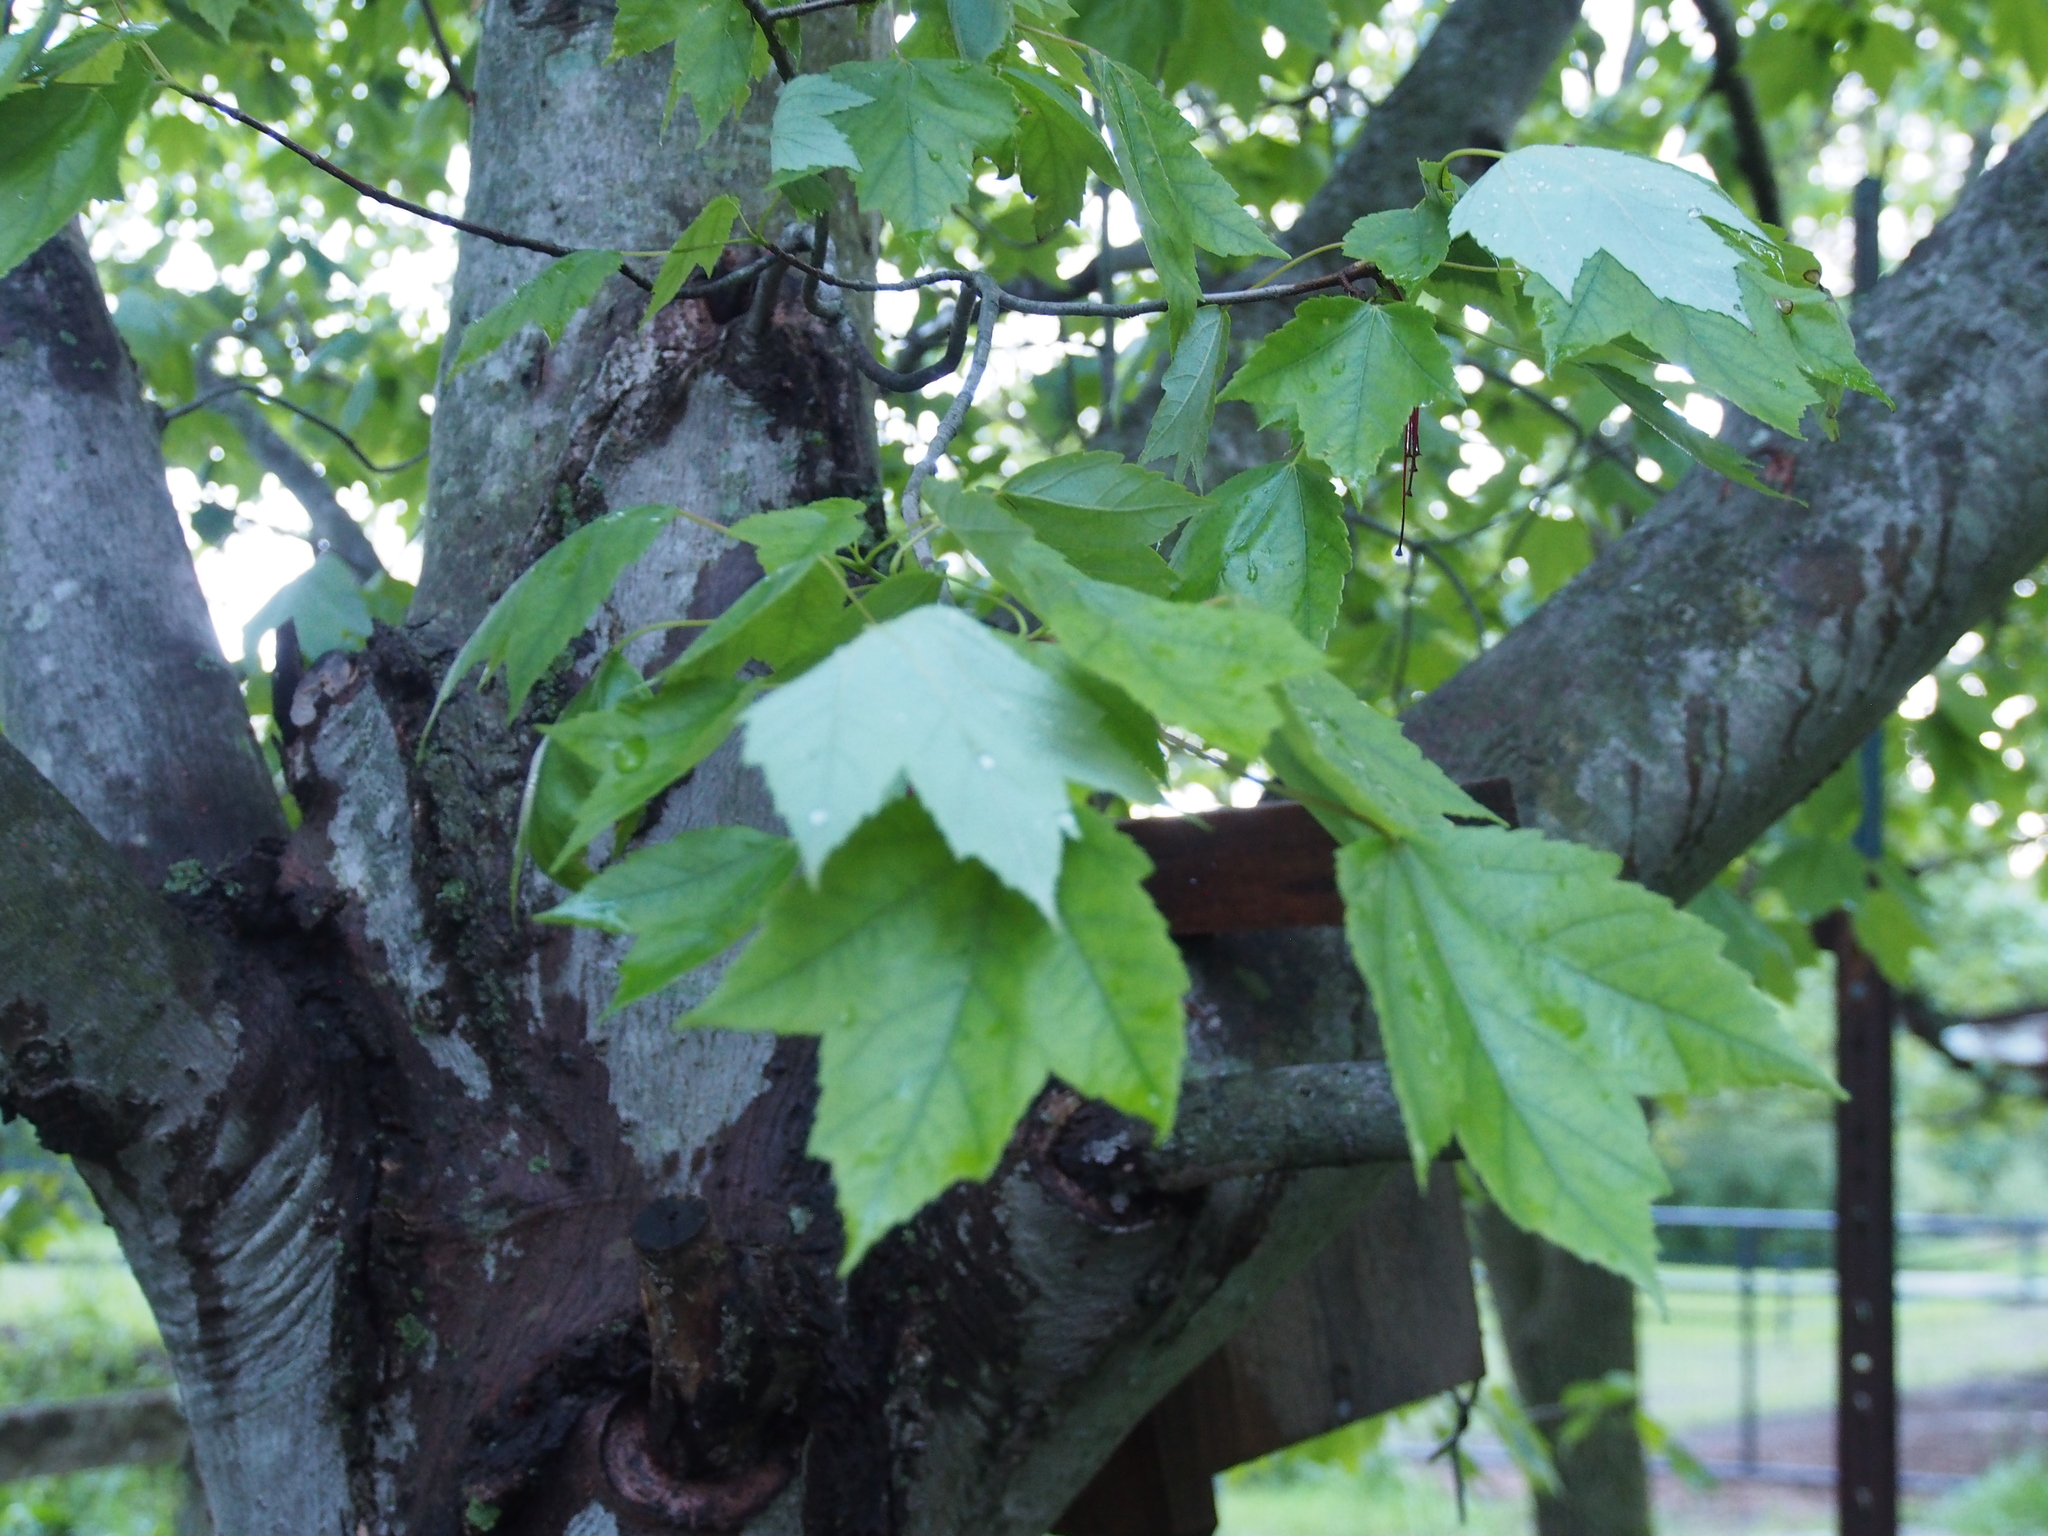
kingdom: Plantae
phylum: Tracheophyta
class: Magnoliopsida
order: Sapindales
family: Sapindaceae
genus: Acer
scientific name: Acer rubrum
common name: Red maple
